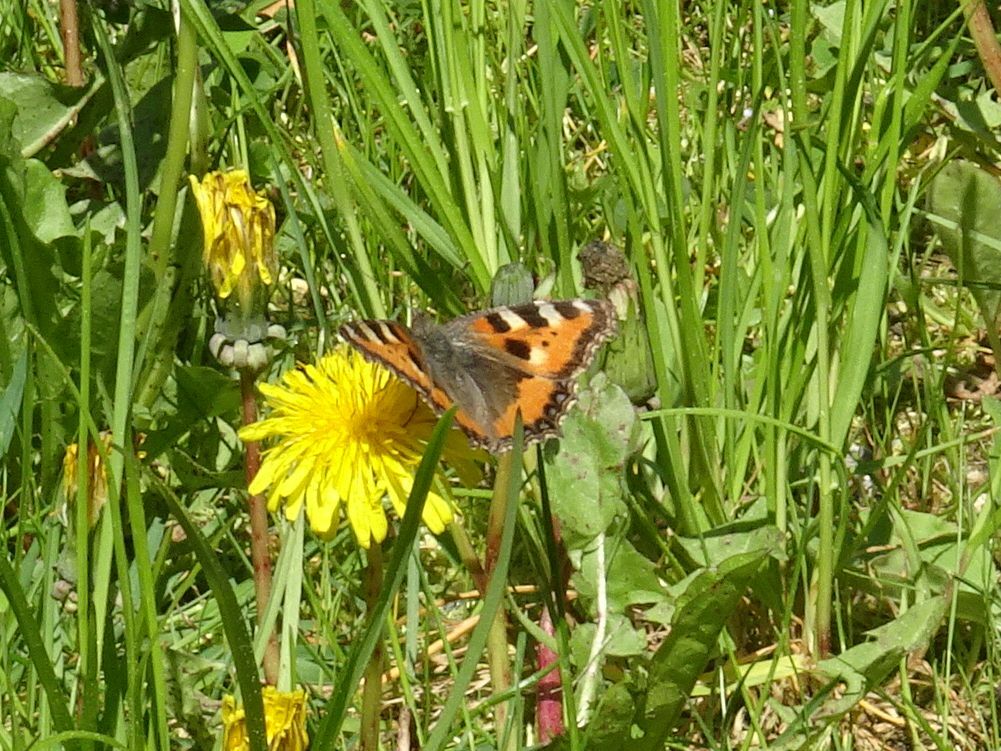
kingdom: Animalia
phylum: Arthropoda
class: Insecta
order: Lepidoptera
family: Nymphalidae
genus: Aglais
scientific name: Aglais urticae
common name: Small tortoiseshell
